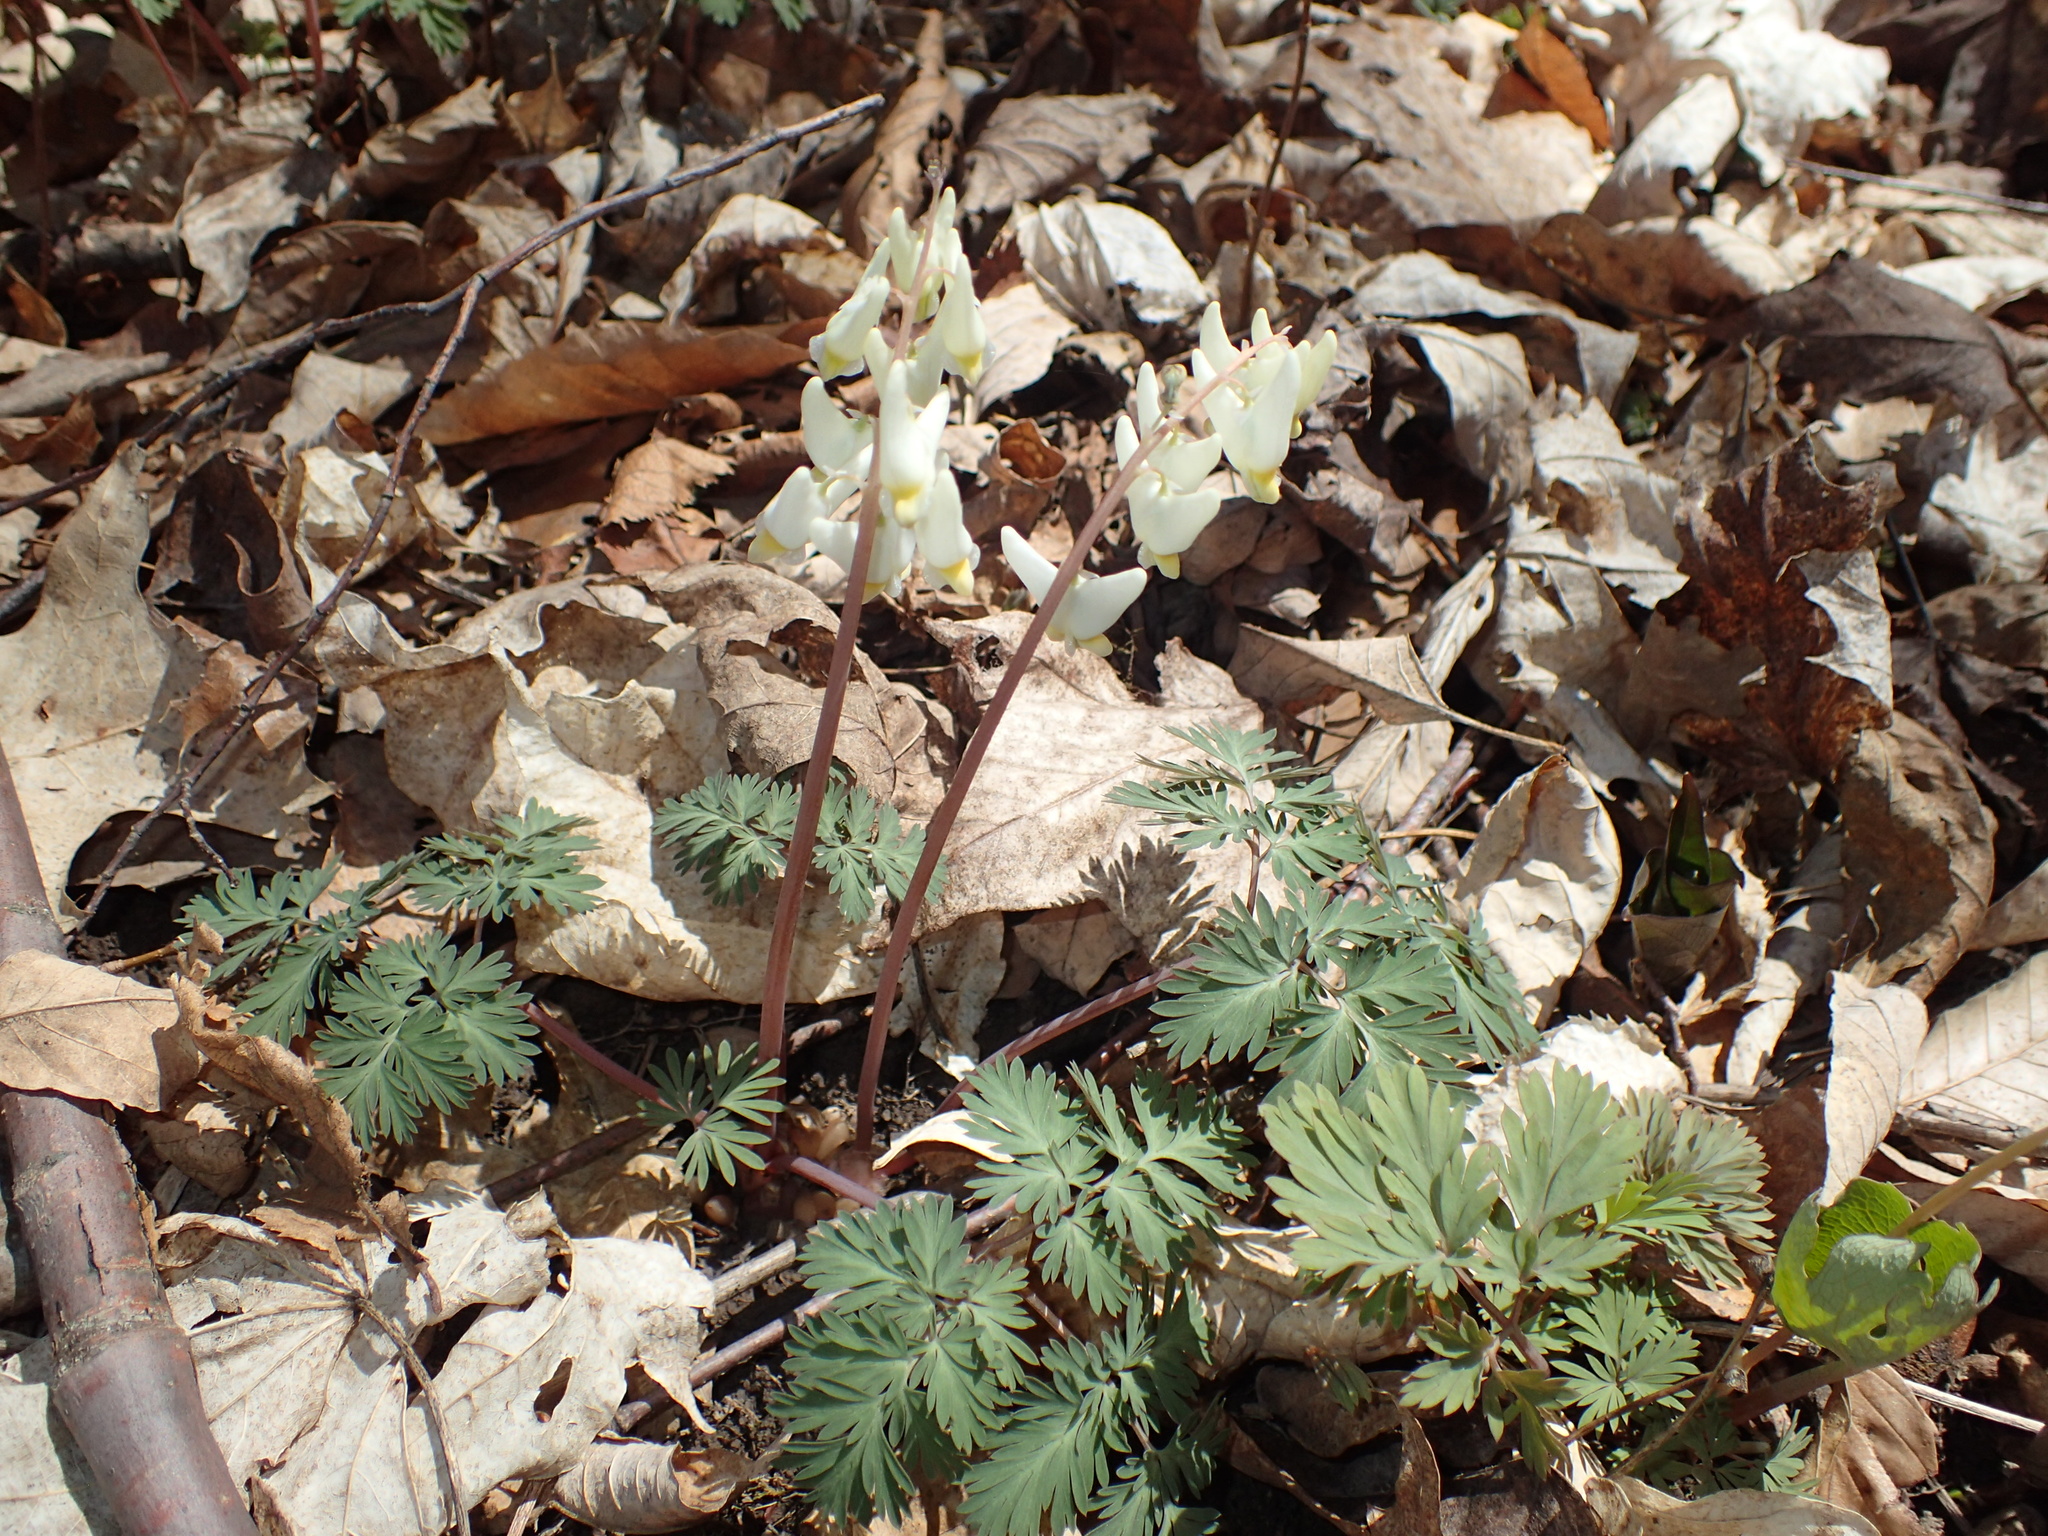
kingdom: Plantae
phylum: Tracheophyta
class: Magnoliopsida
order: Ranunculales
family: Papaveraceae
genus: Dicentra
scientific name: Dicentra cucullaria
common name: Dutchman's breeches
